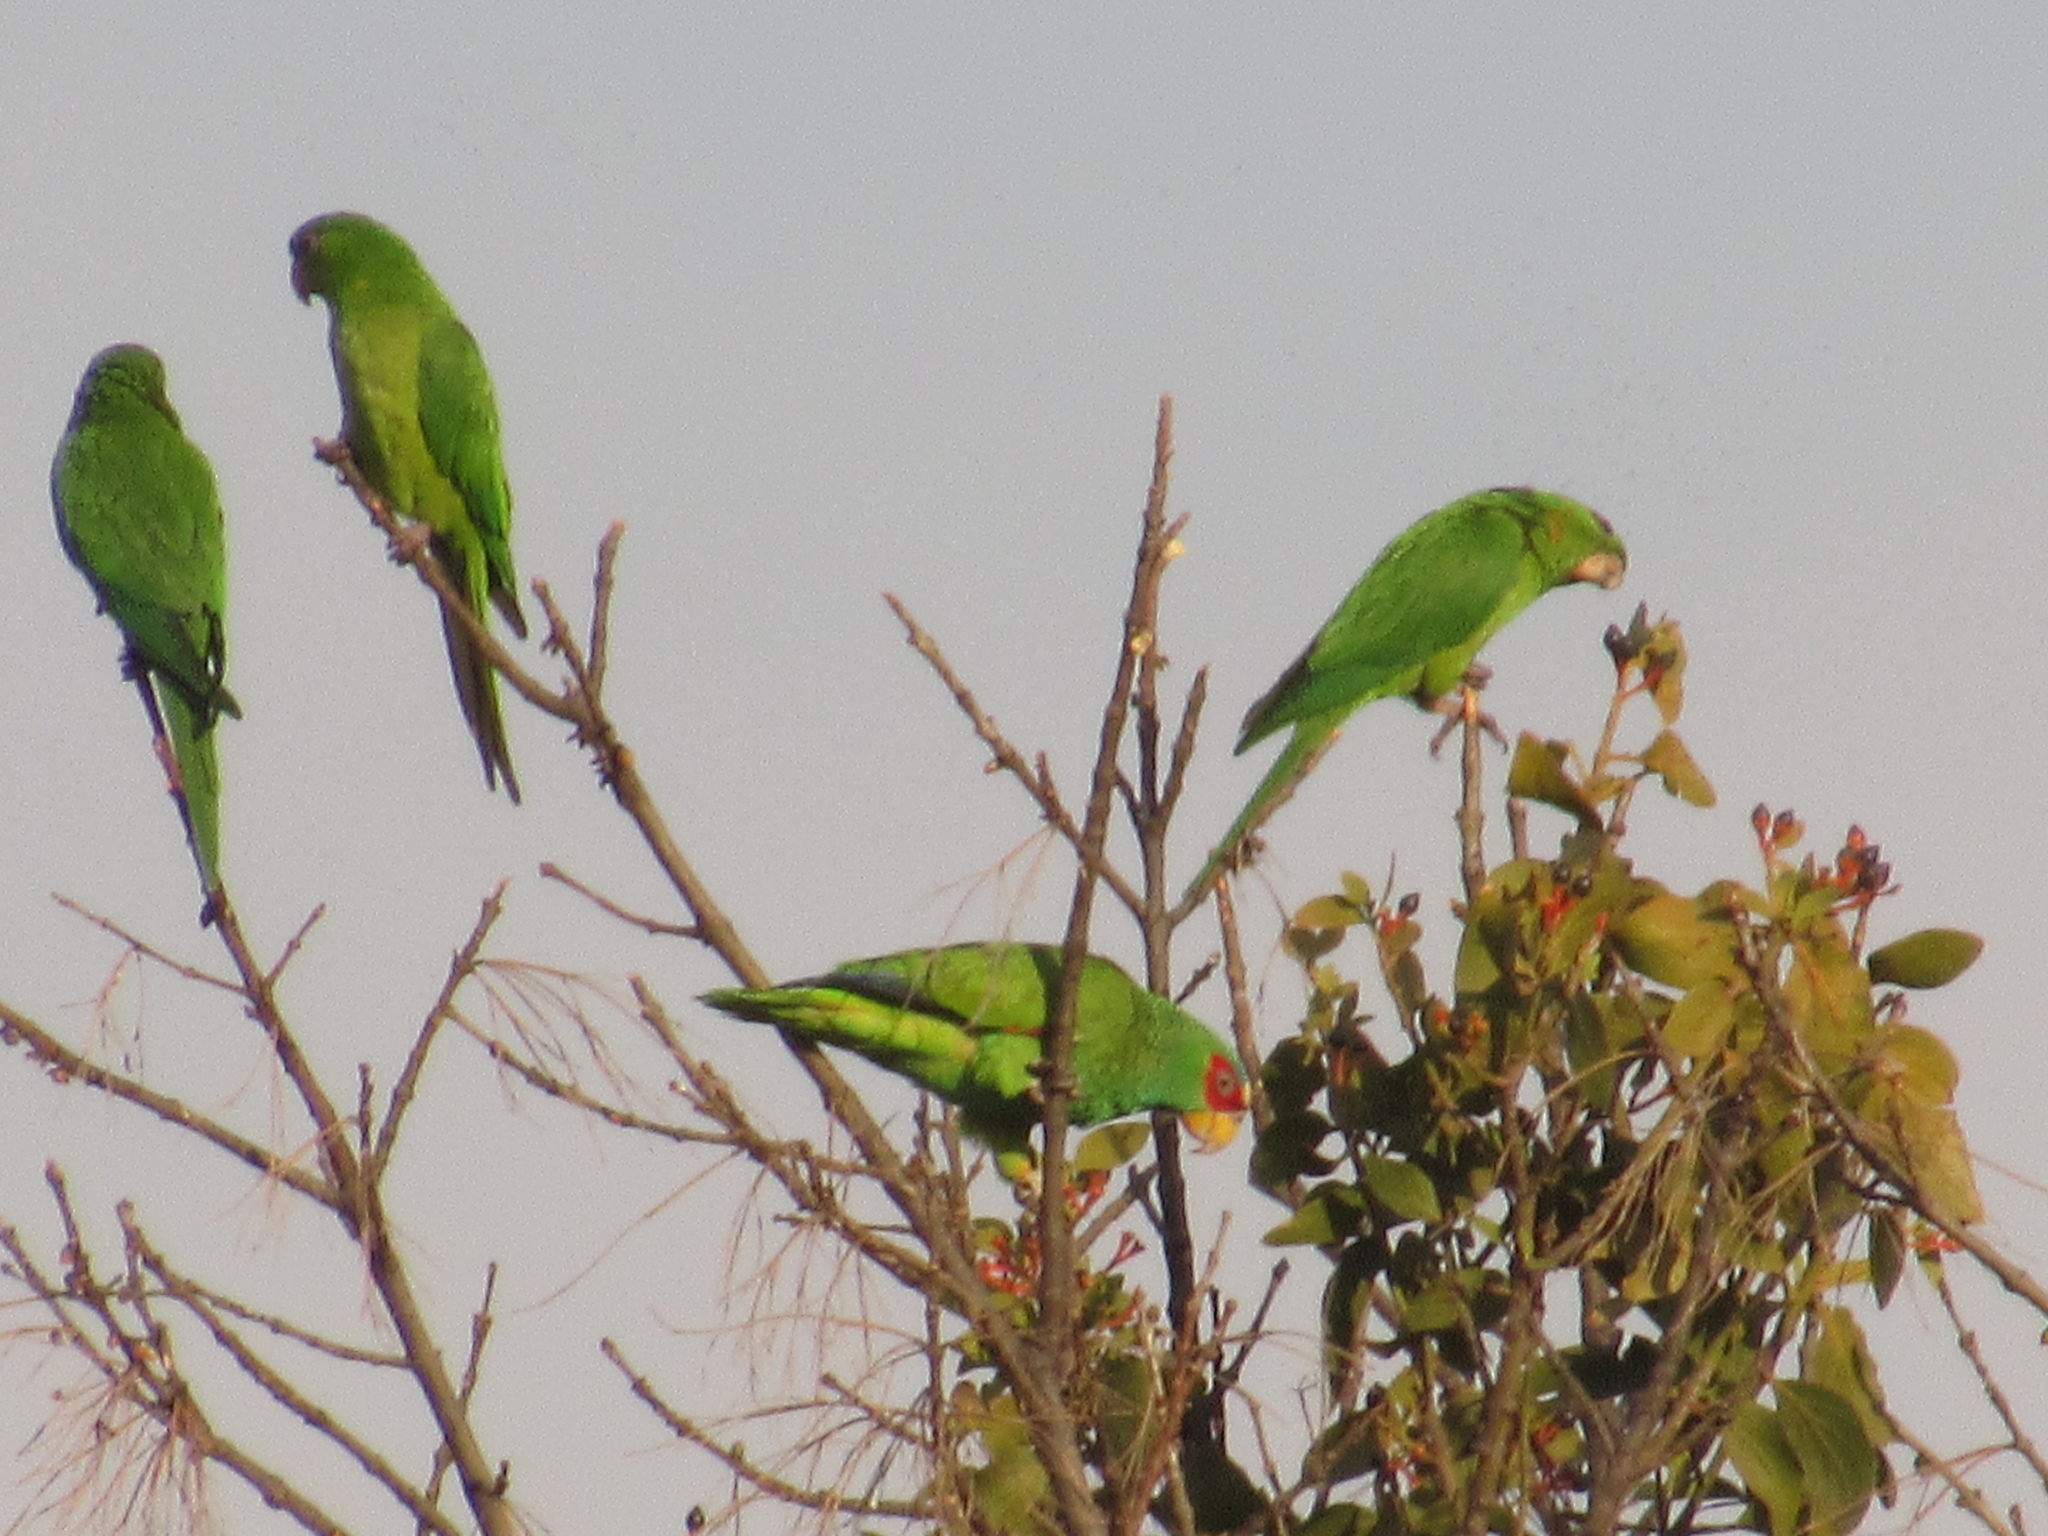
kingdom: Animalia
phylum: Chordata
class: Aves
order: Psittaciformes
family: Psittacidae
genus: Aratinga
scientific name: Aratinga holochlora
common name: Green parakeet
